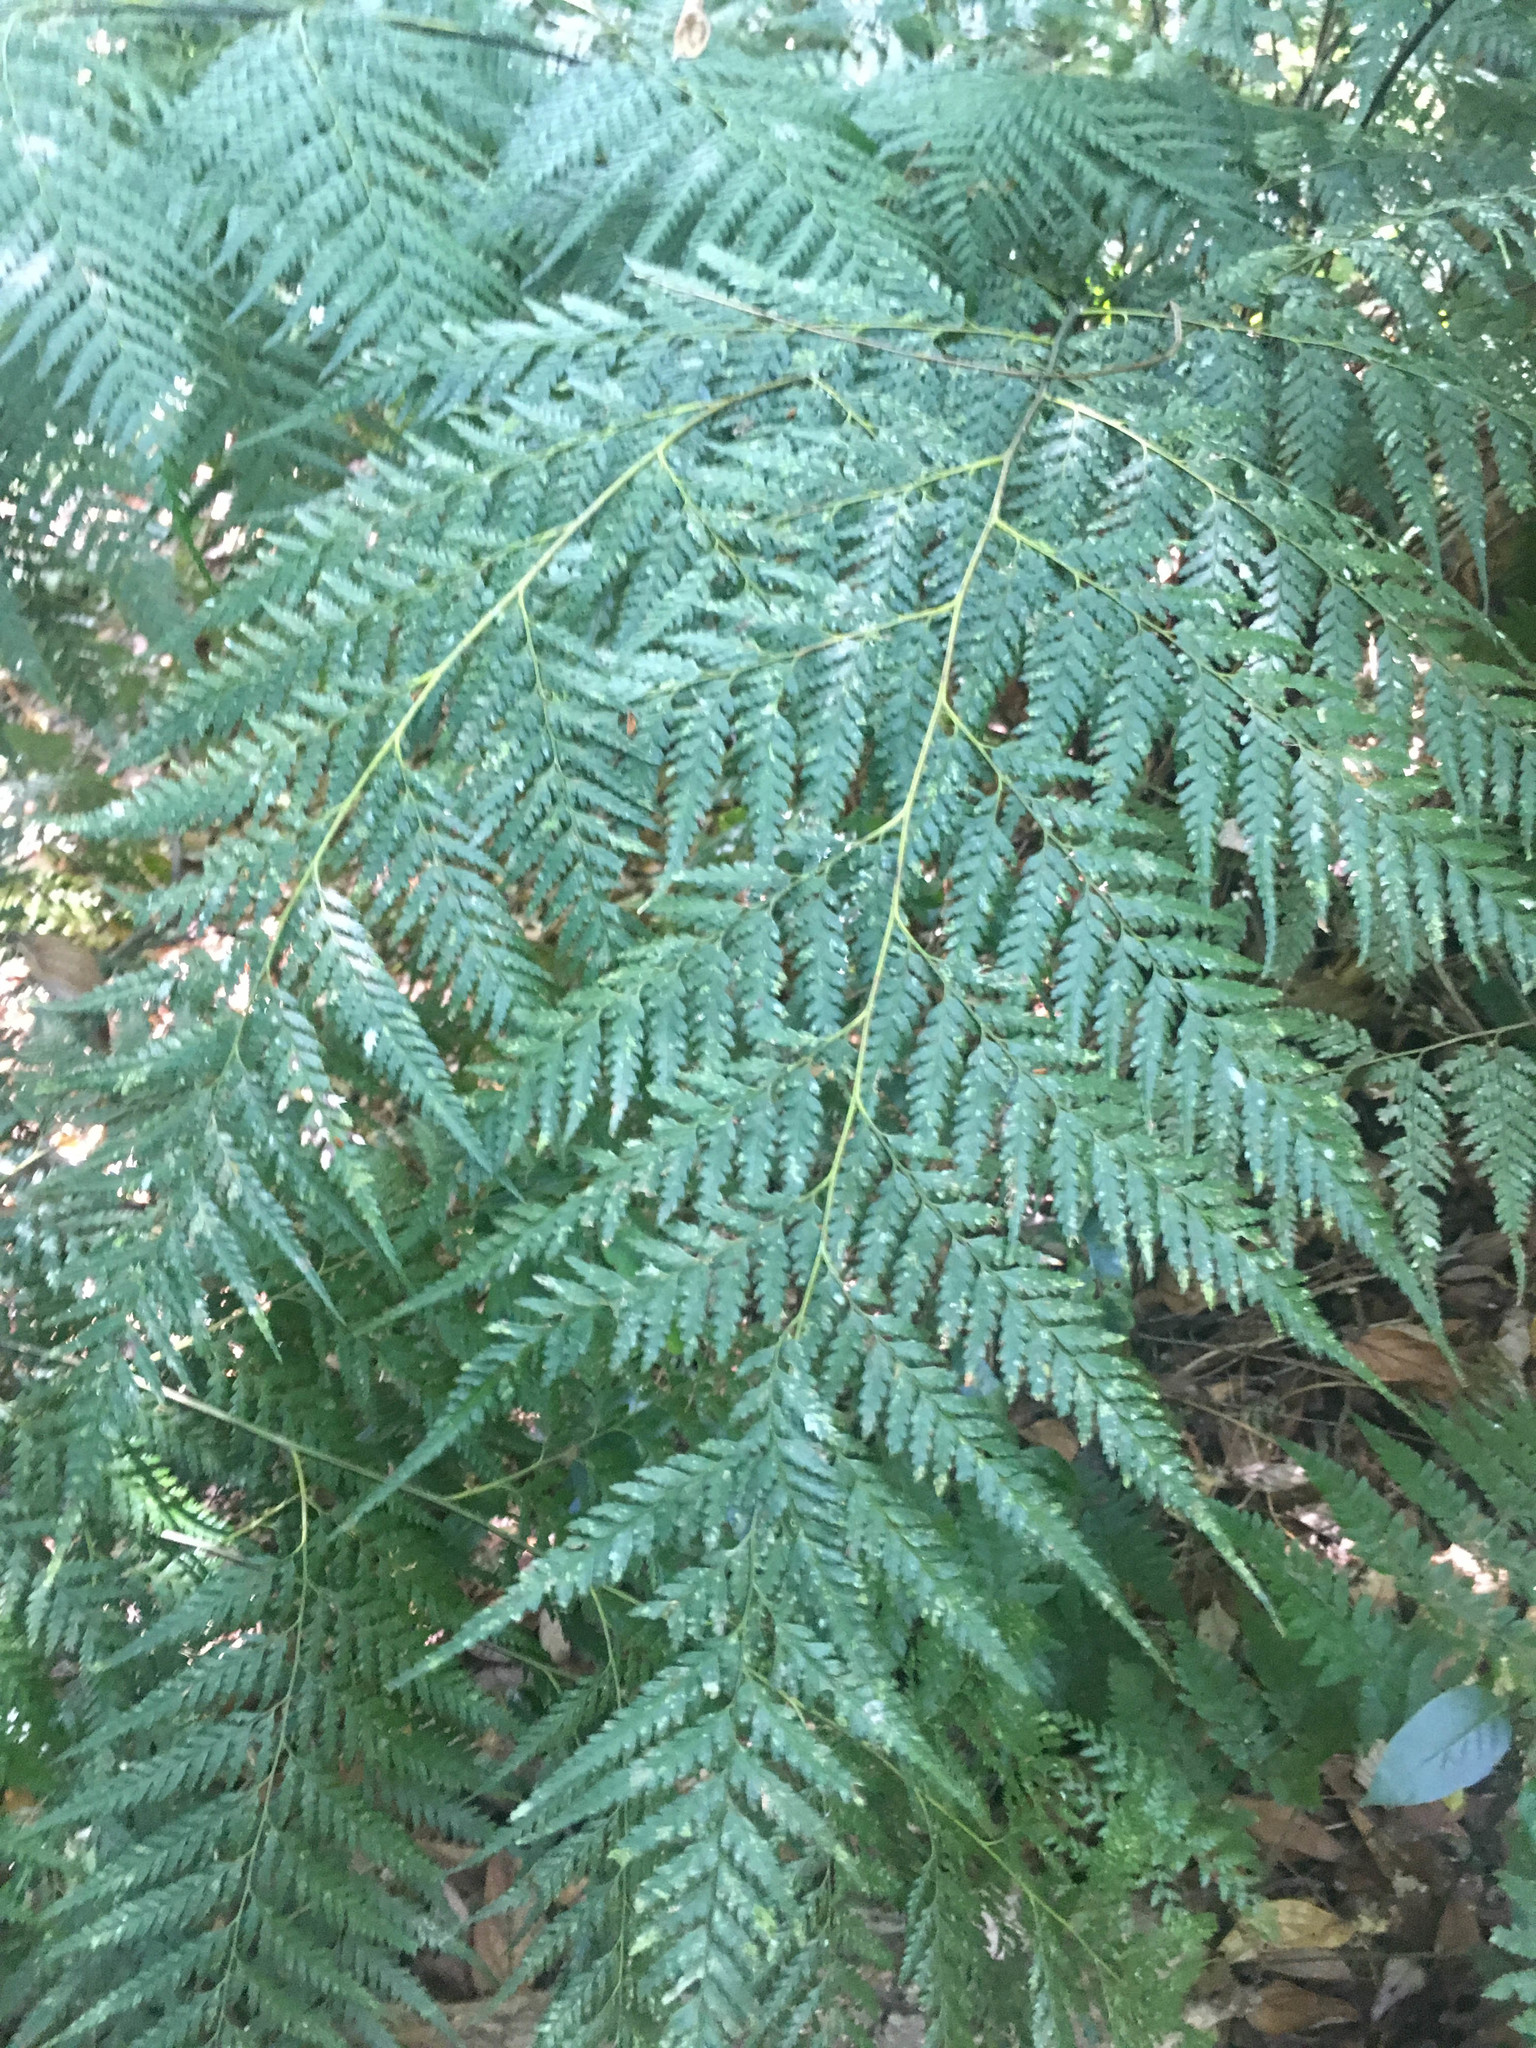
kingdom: Plantae
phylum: Tracheophyta
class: Polypodiopsida
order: Polypodiales
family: Saccolomataceae
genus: Orthiopteris
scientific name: Orthiopteris firma
